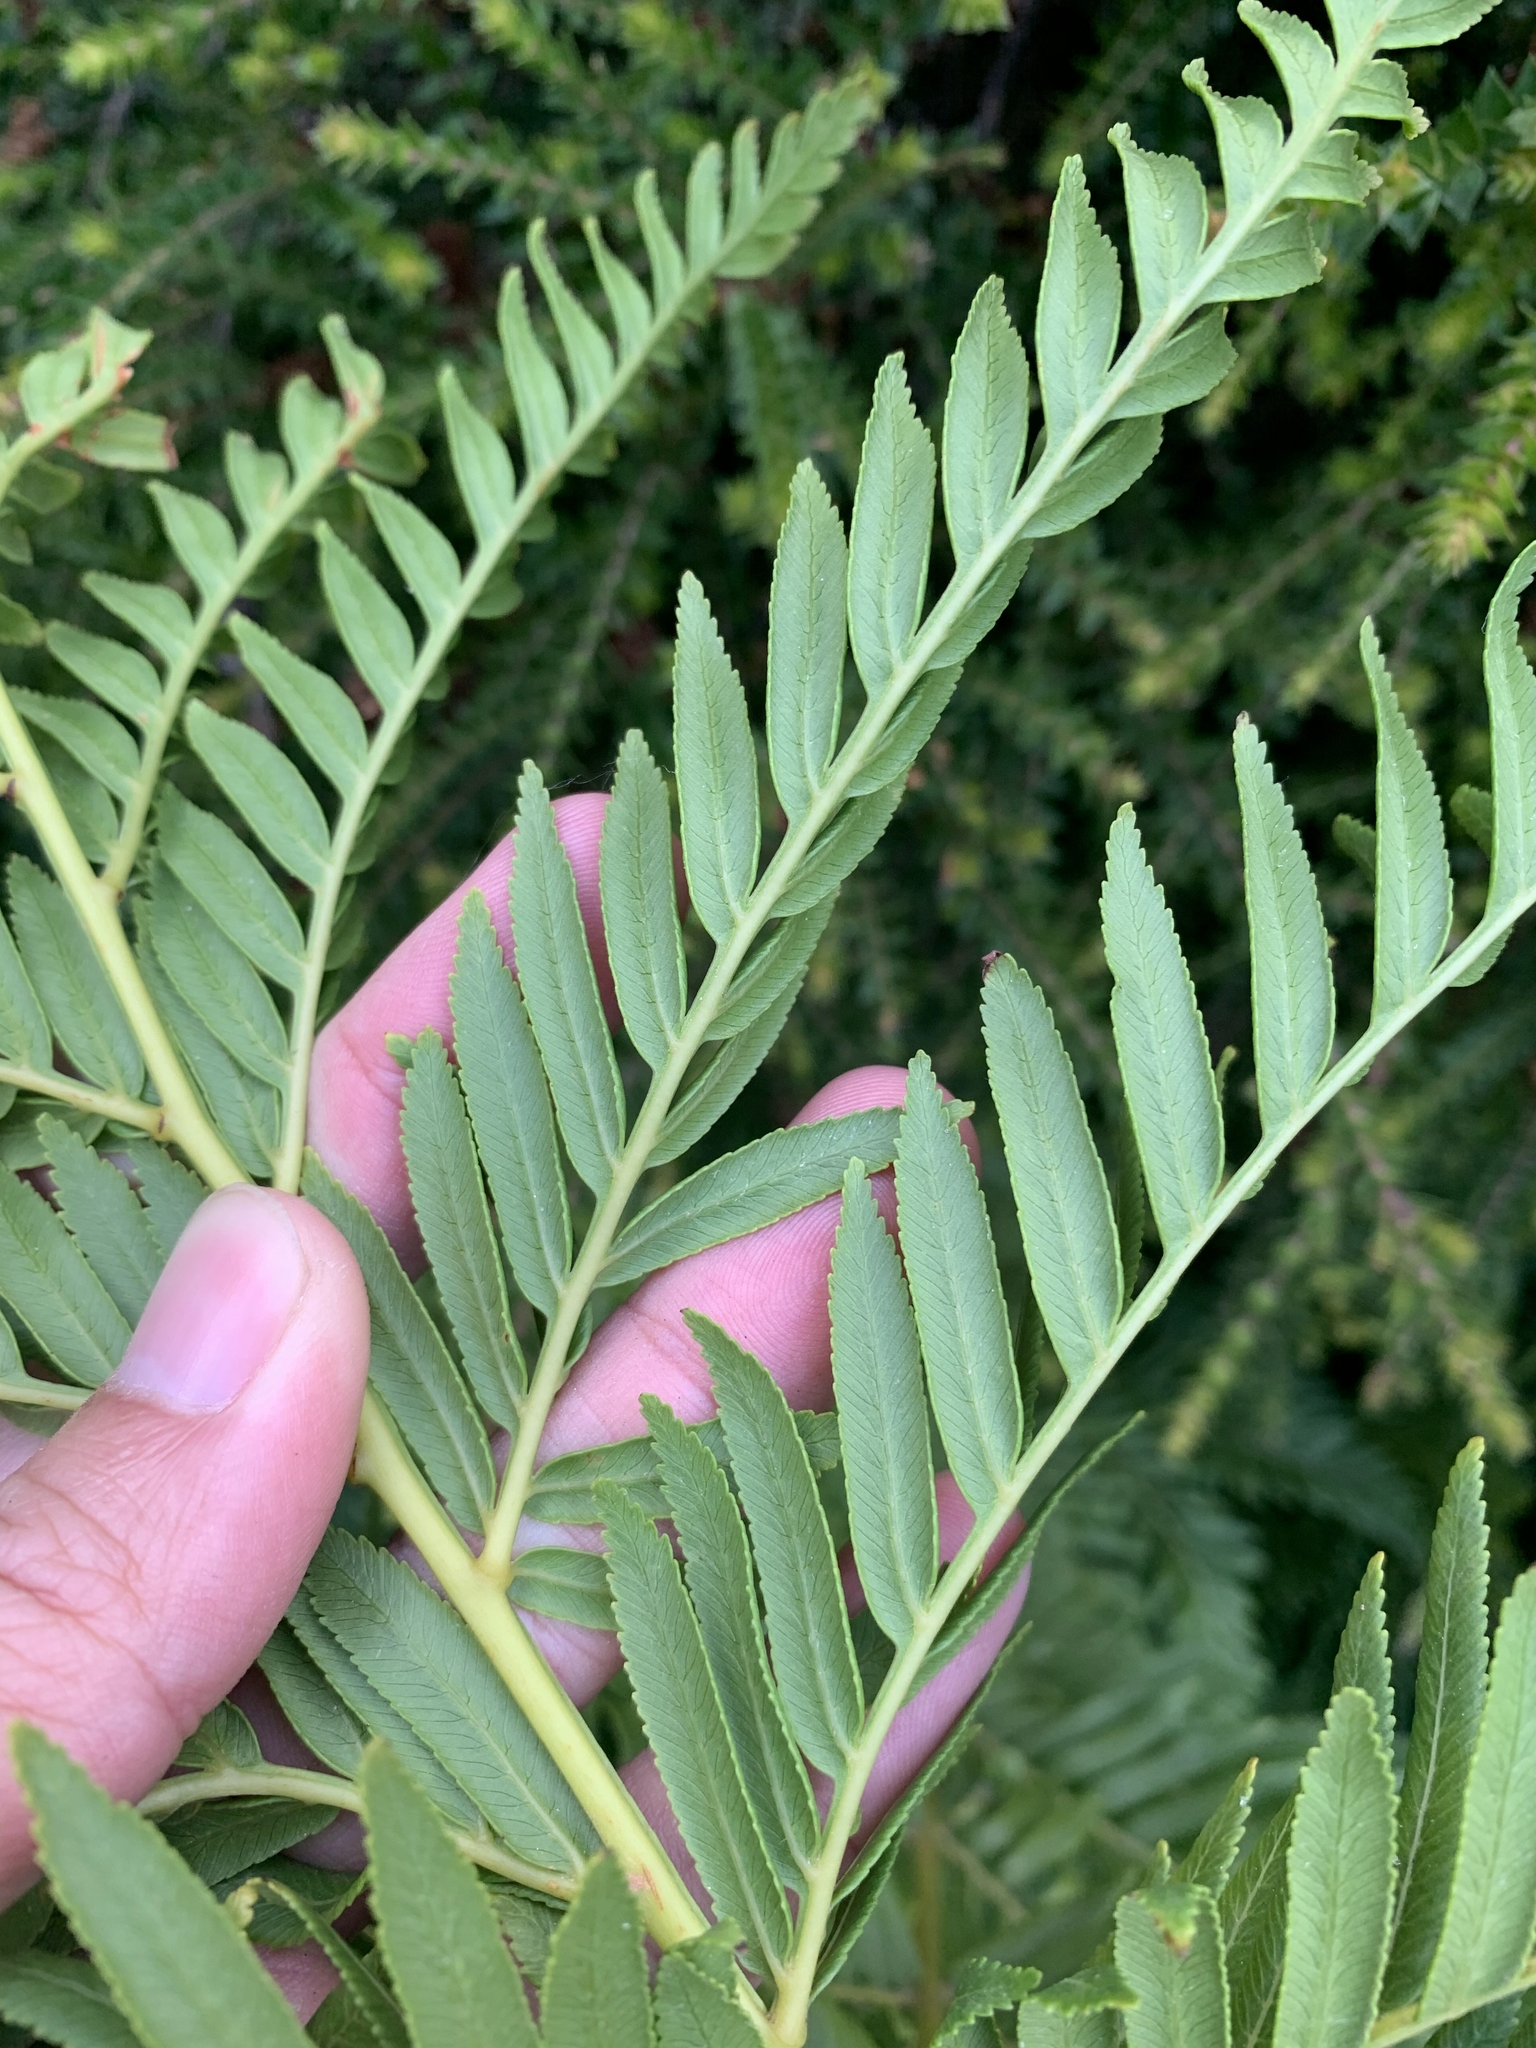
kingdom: Plantae
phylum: Tracheophyta
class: Polypodiopsida
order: Osmundales
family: Osmundaceae
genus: Todea
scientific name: Todea barbara
